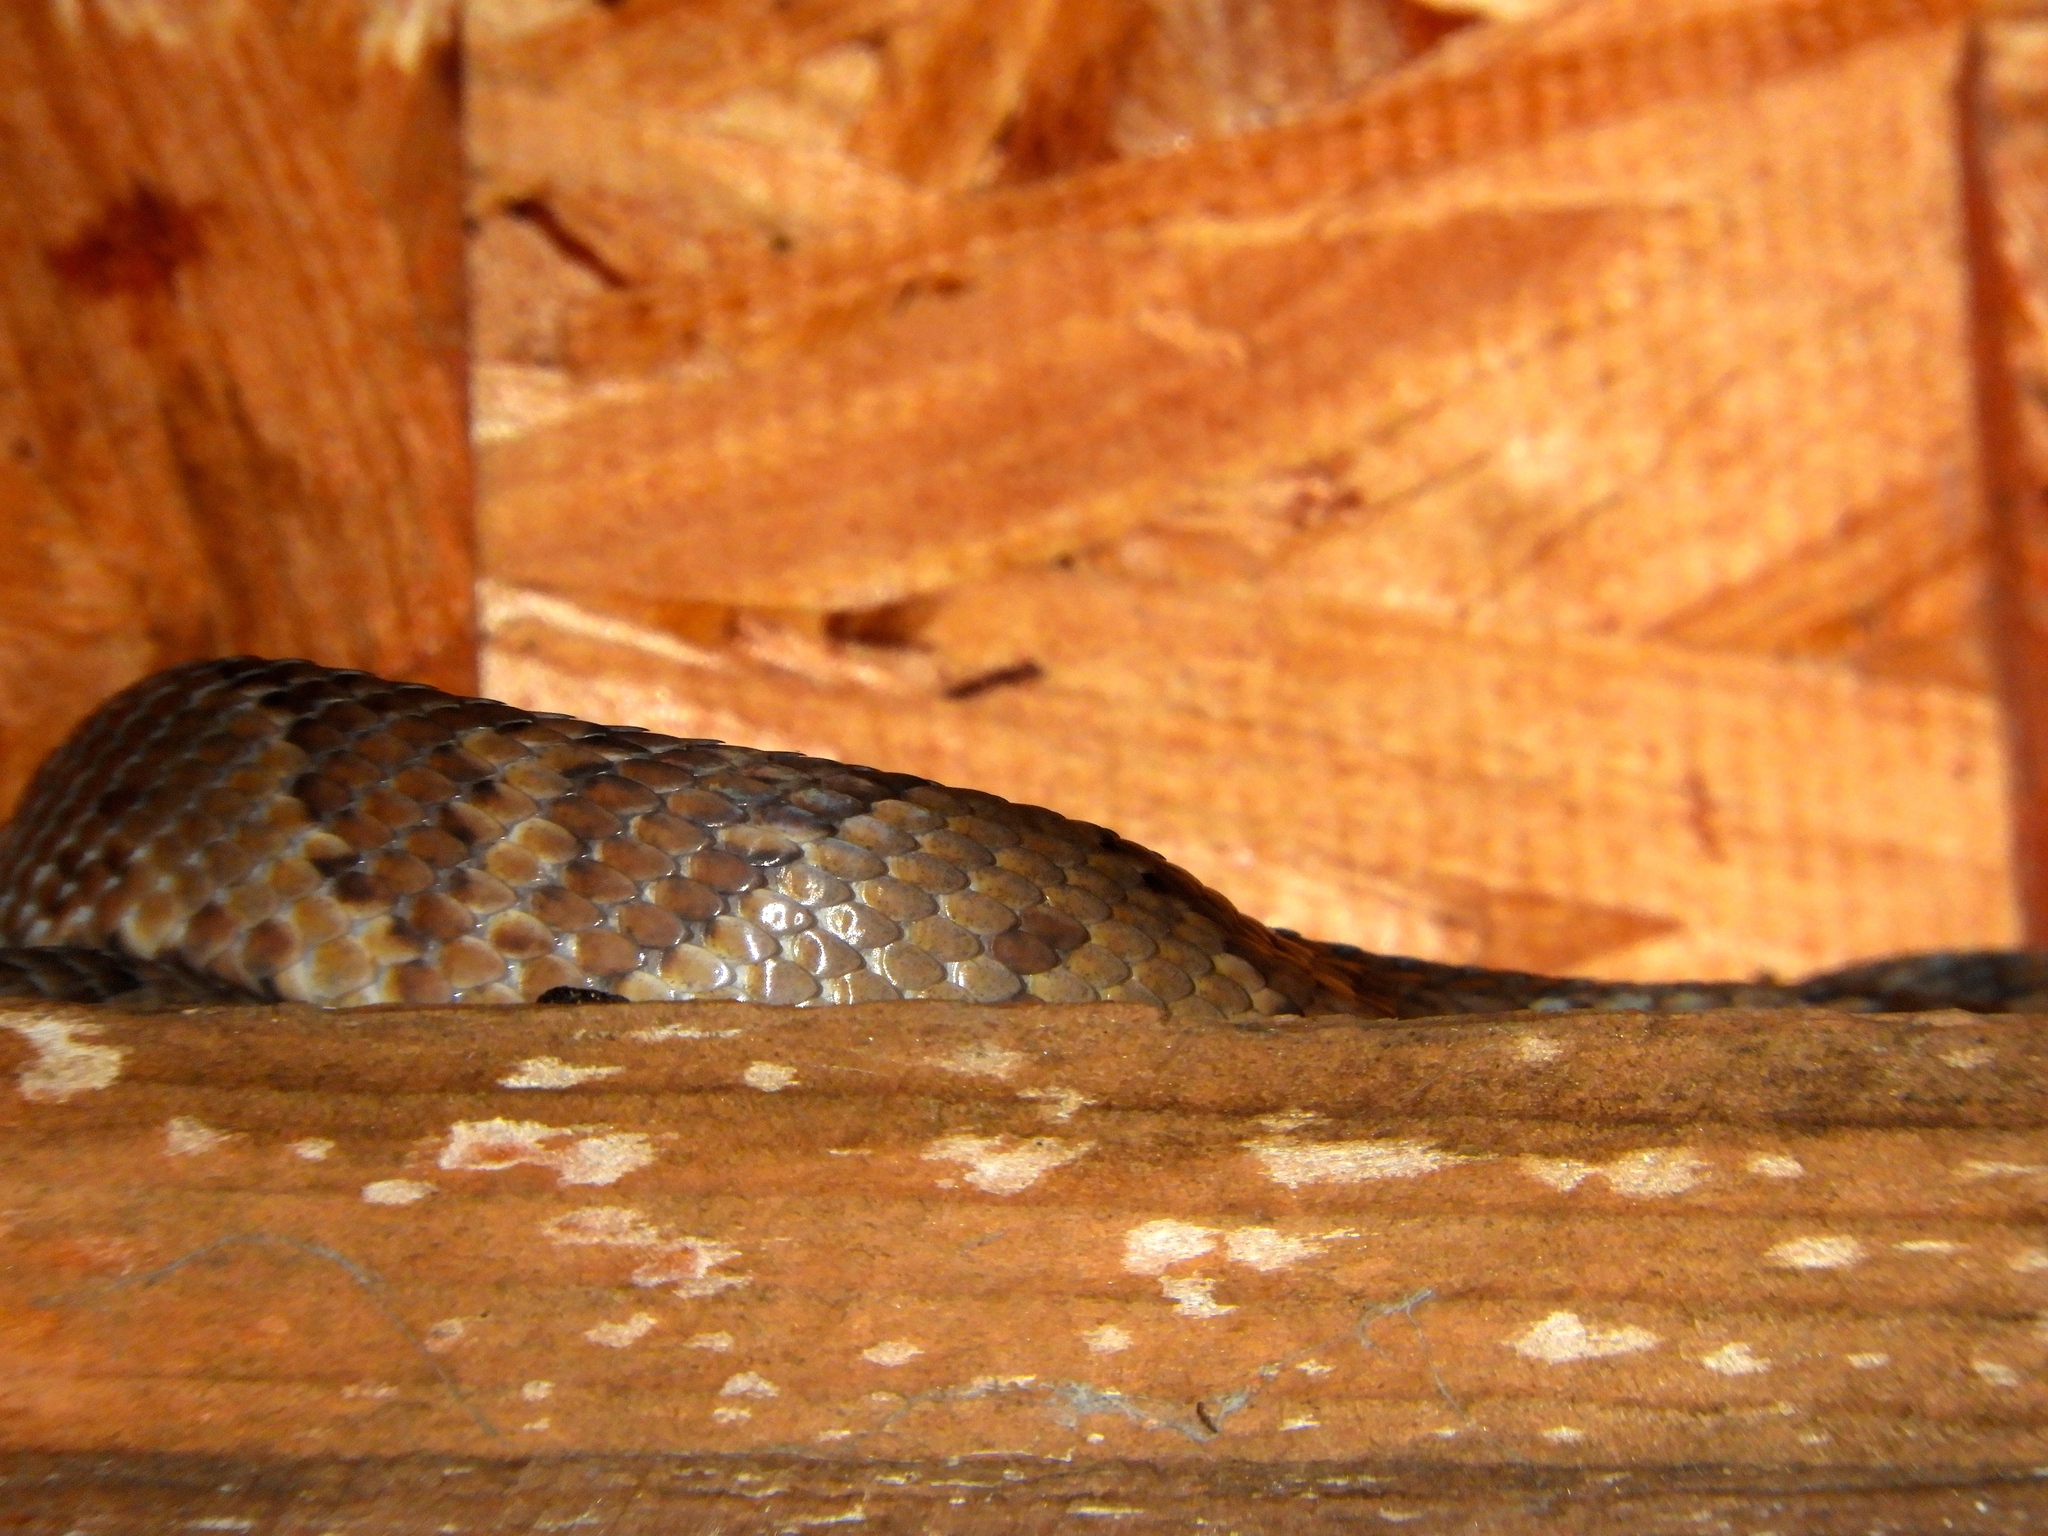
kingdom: Animalia
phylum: Chordata
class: Squamata
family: Colubridae
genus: Trimorphodon
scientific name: Trimorphodon paucimaculatus
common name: Sinaloan lyresnake
